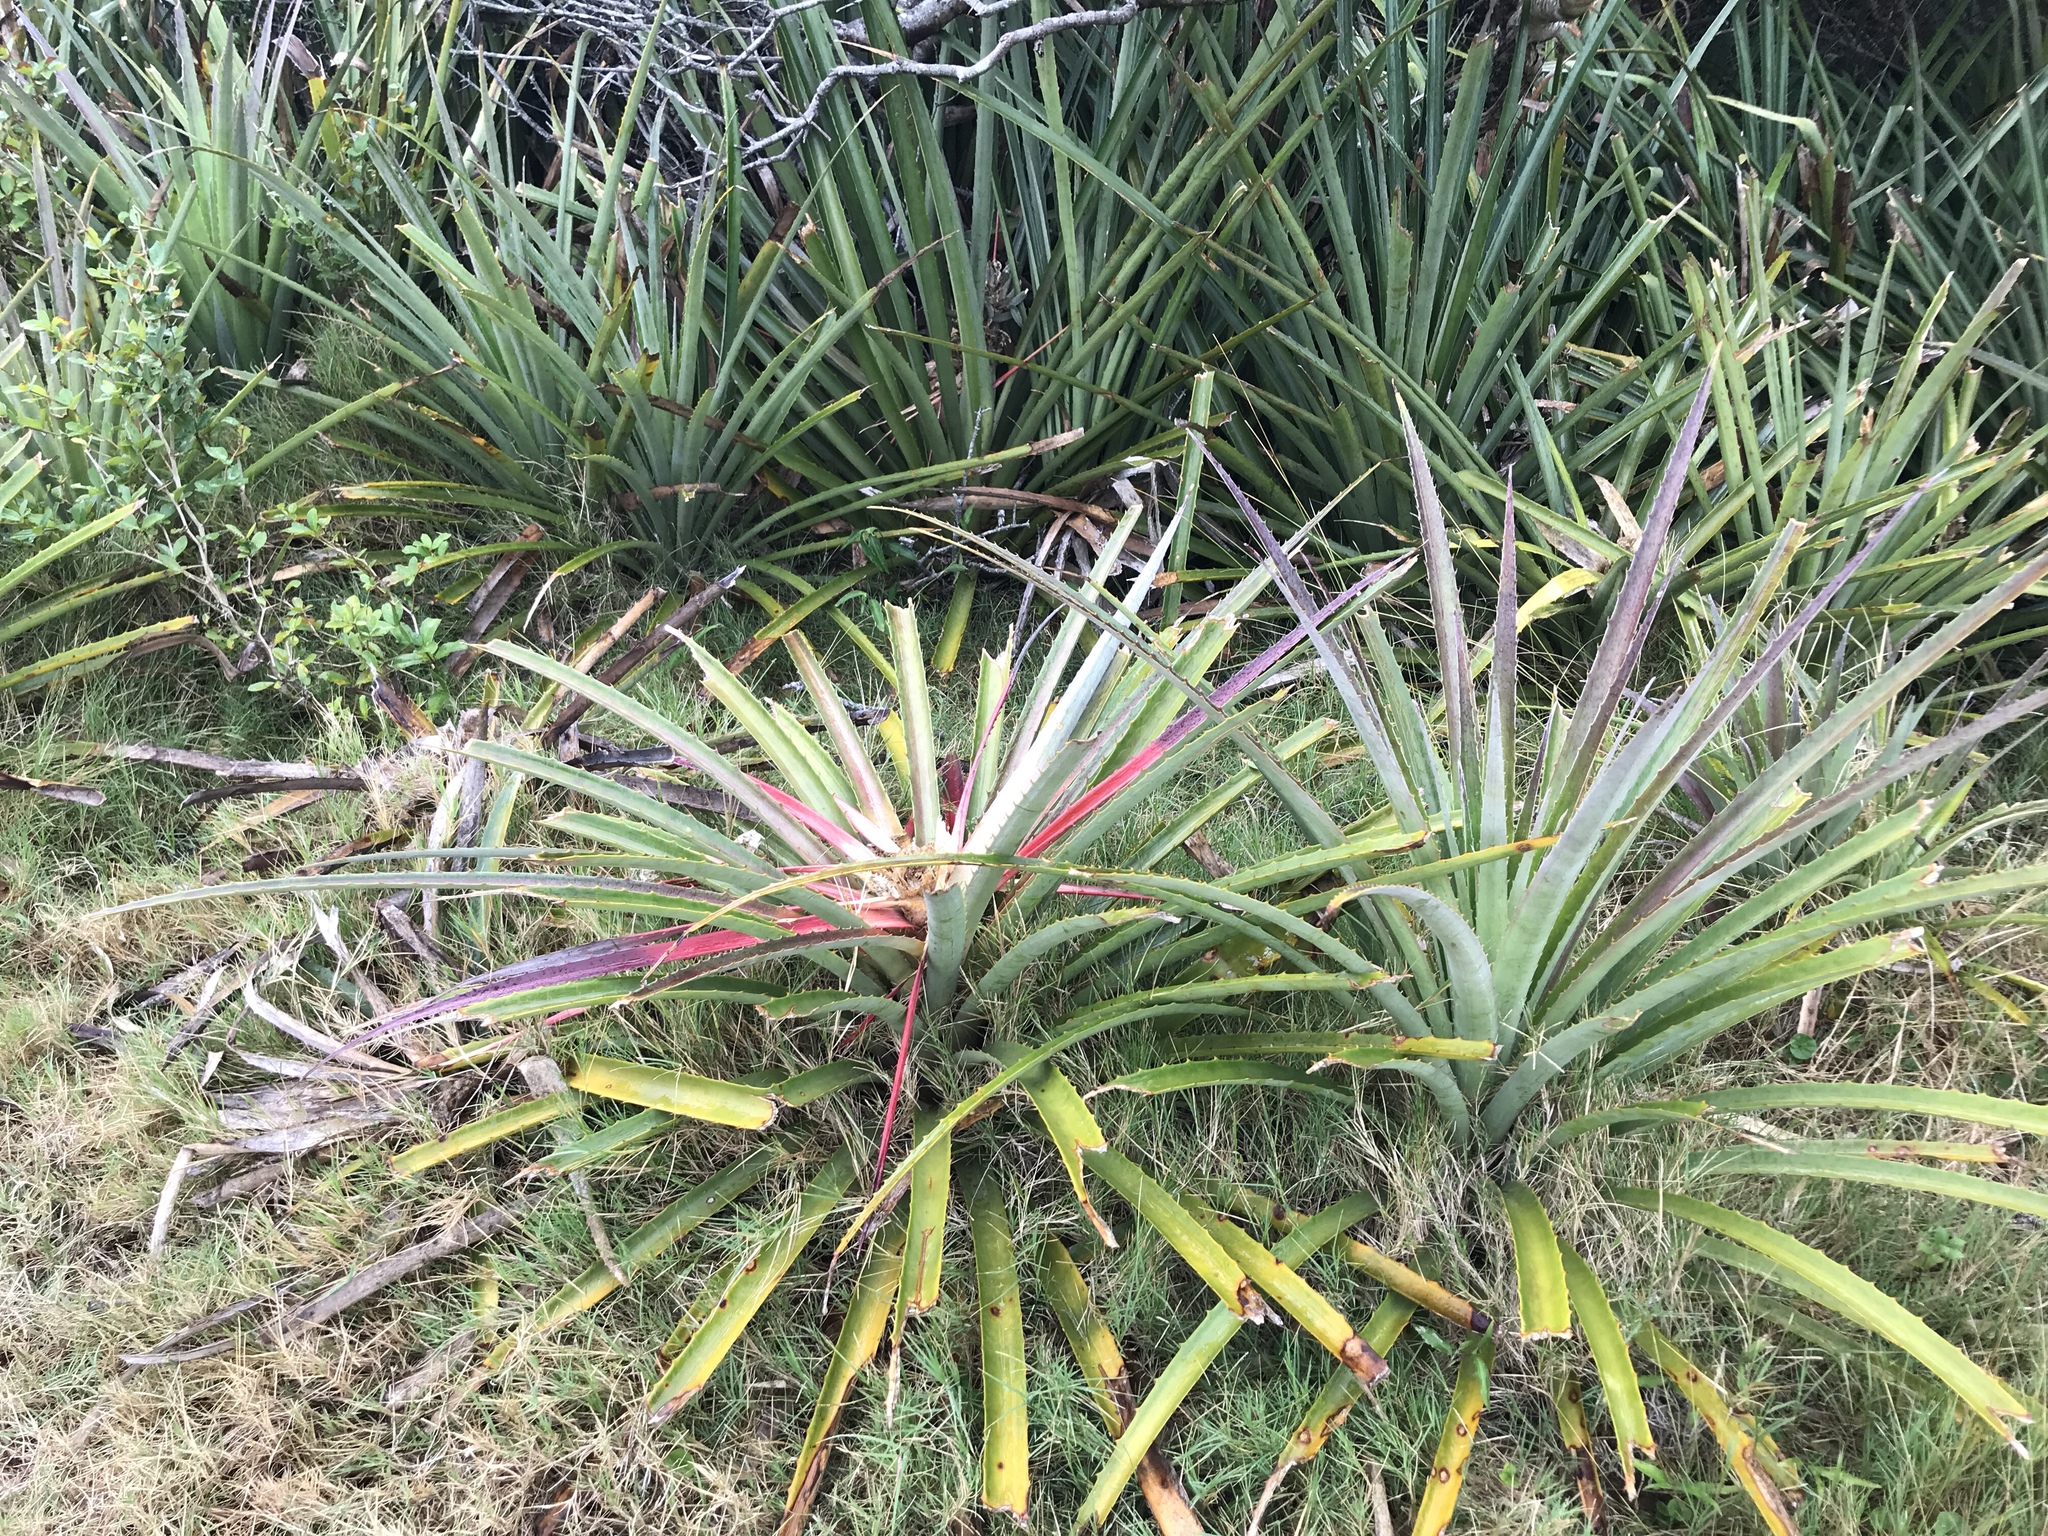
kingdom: Plantae
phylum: Tracheophyta
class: Liliopsida
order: Poales
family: Bromeliaceae
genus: Bromelia
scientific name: Bromelia antiacantha
